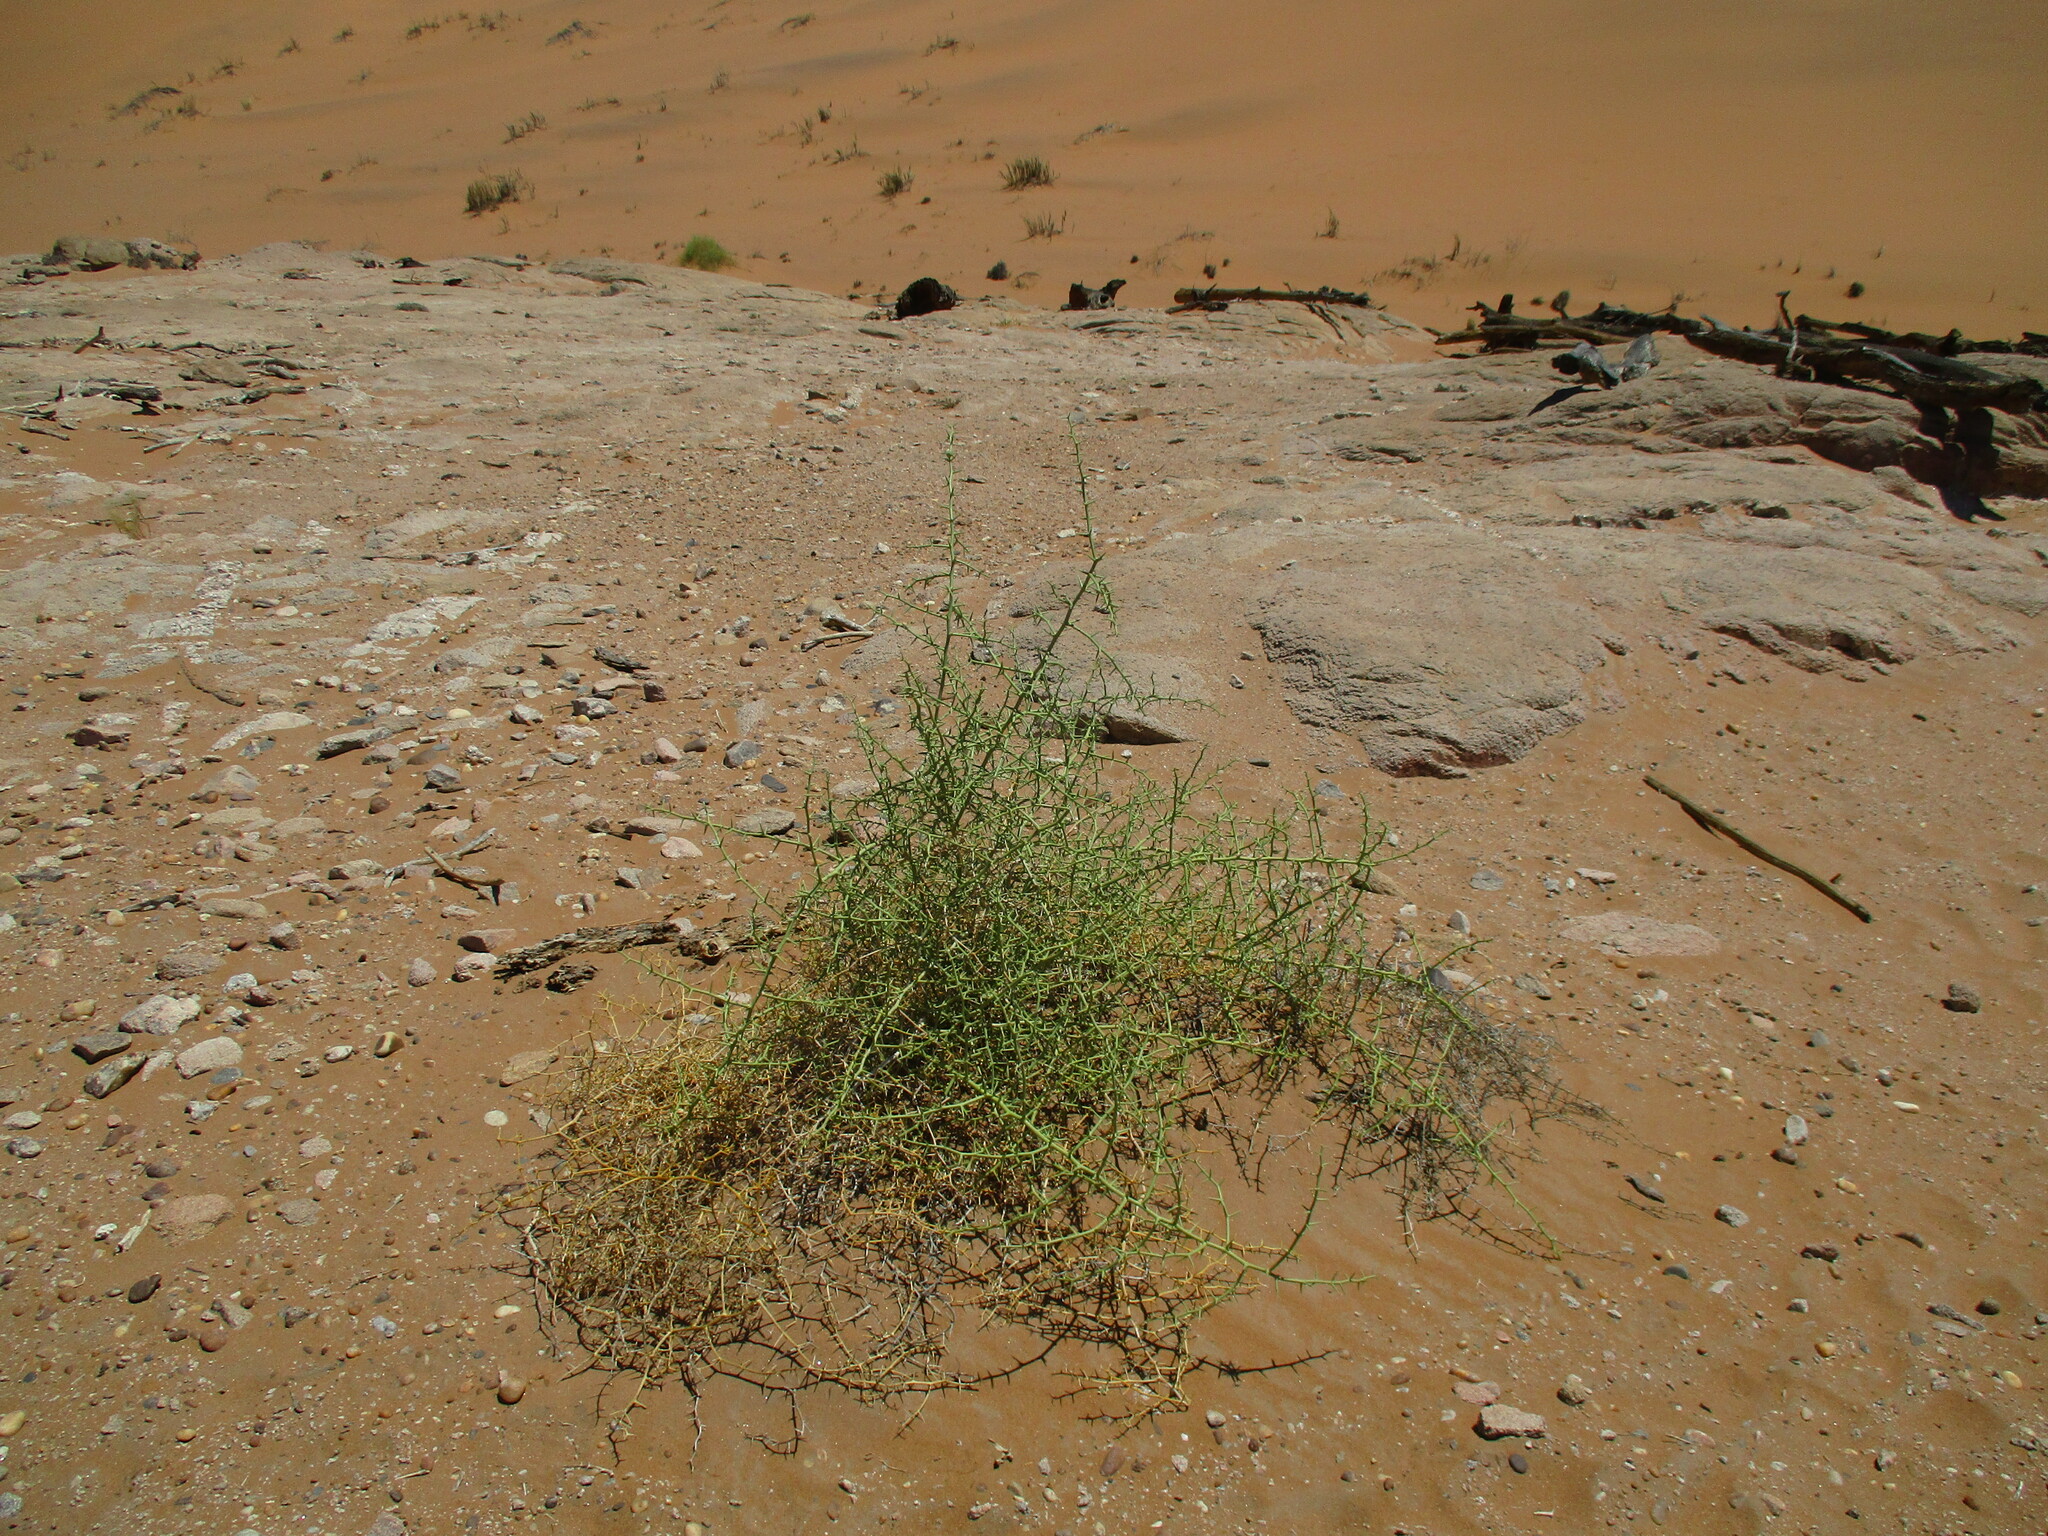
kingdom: Plantae
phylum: Tracheophyta
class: Magnoliopsida
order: Cucurbitales
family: Cucurbitaceae
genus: Acanthosicyos
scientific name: Acanthosicyos horridus
